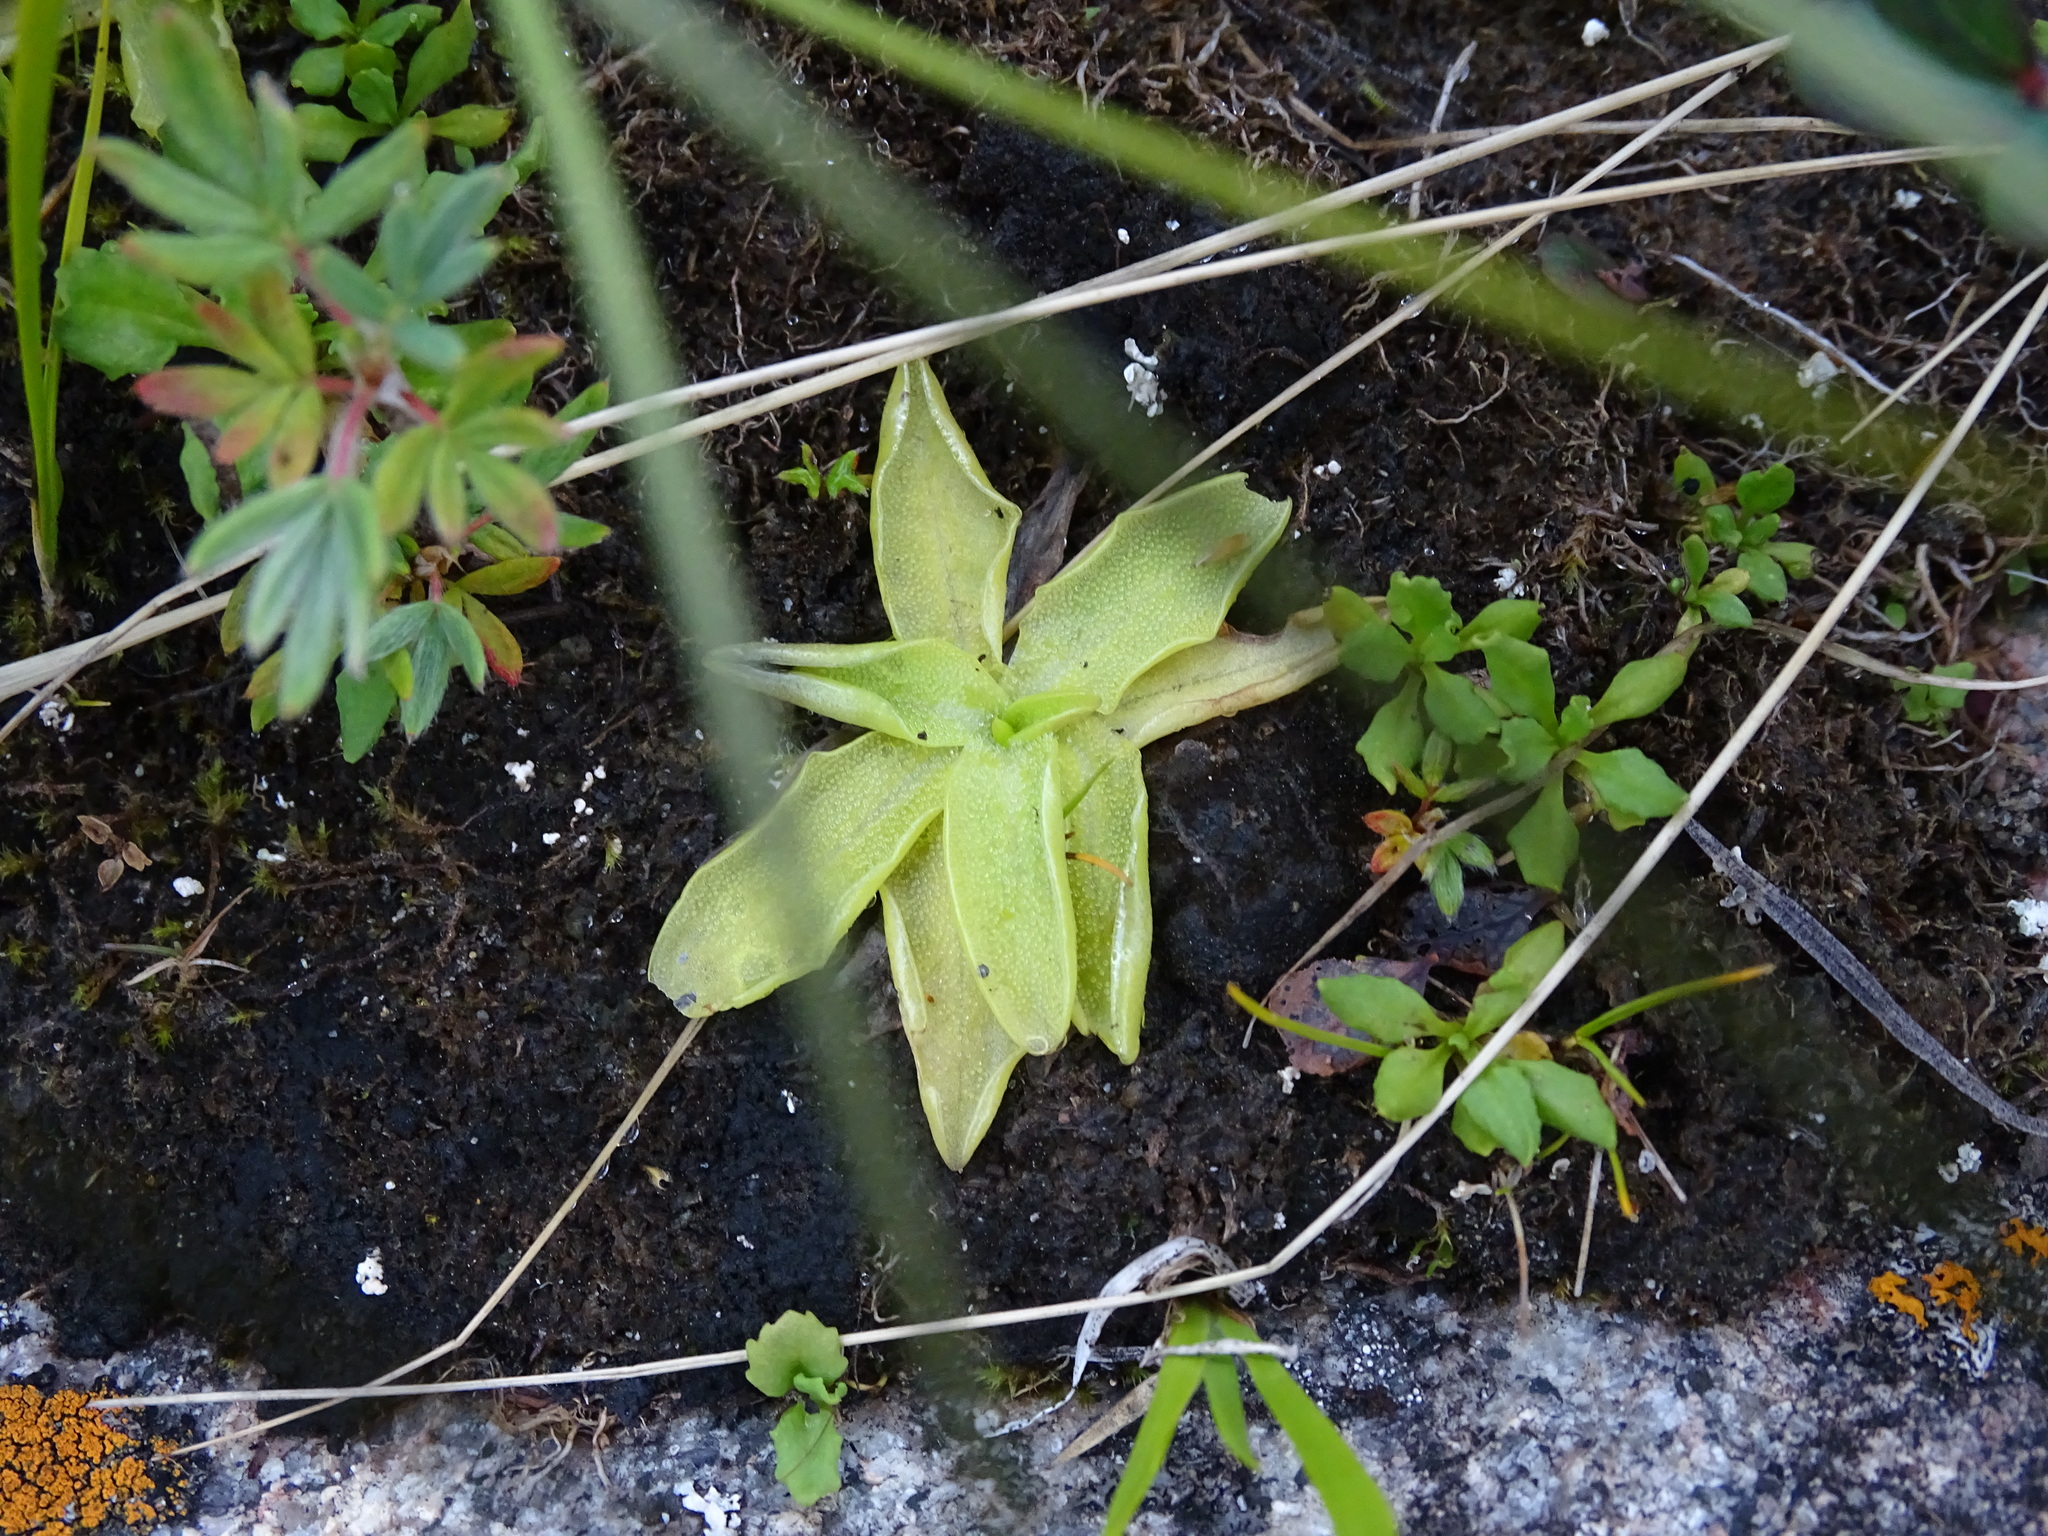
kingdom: Plantae
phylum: Tracheophyta
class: Magnoliopsida
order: Lamiales
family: Lentibulariaceae
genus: Pinguicula
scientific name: Pinguicula vulgaris
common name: Common butterwort
